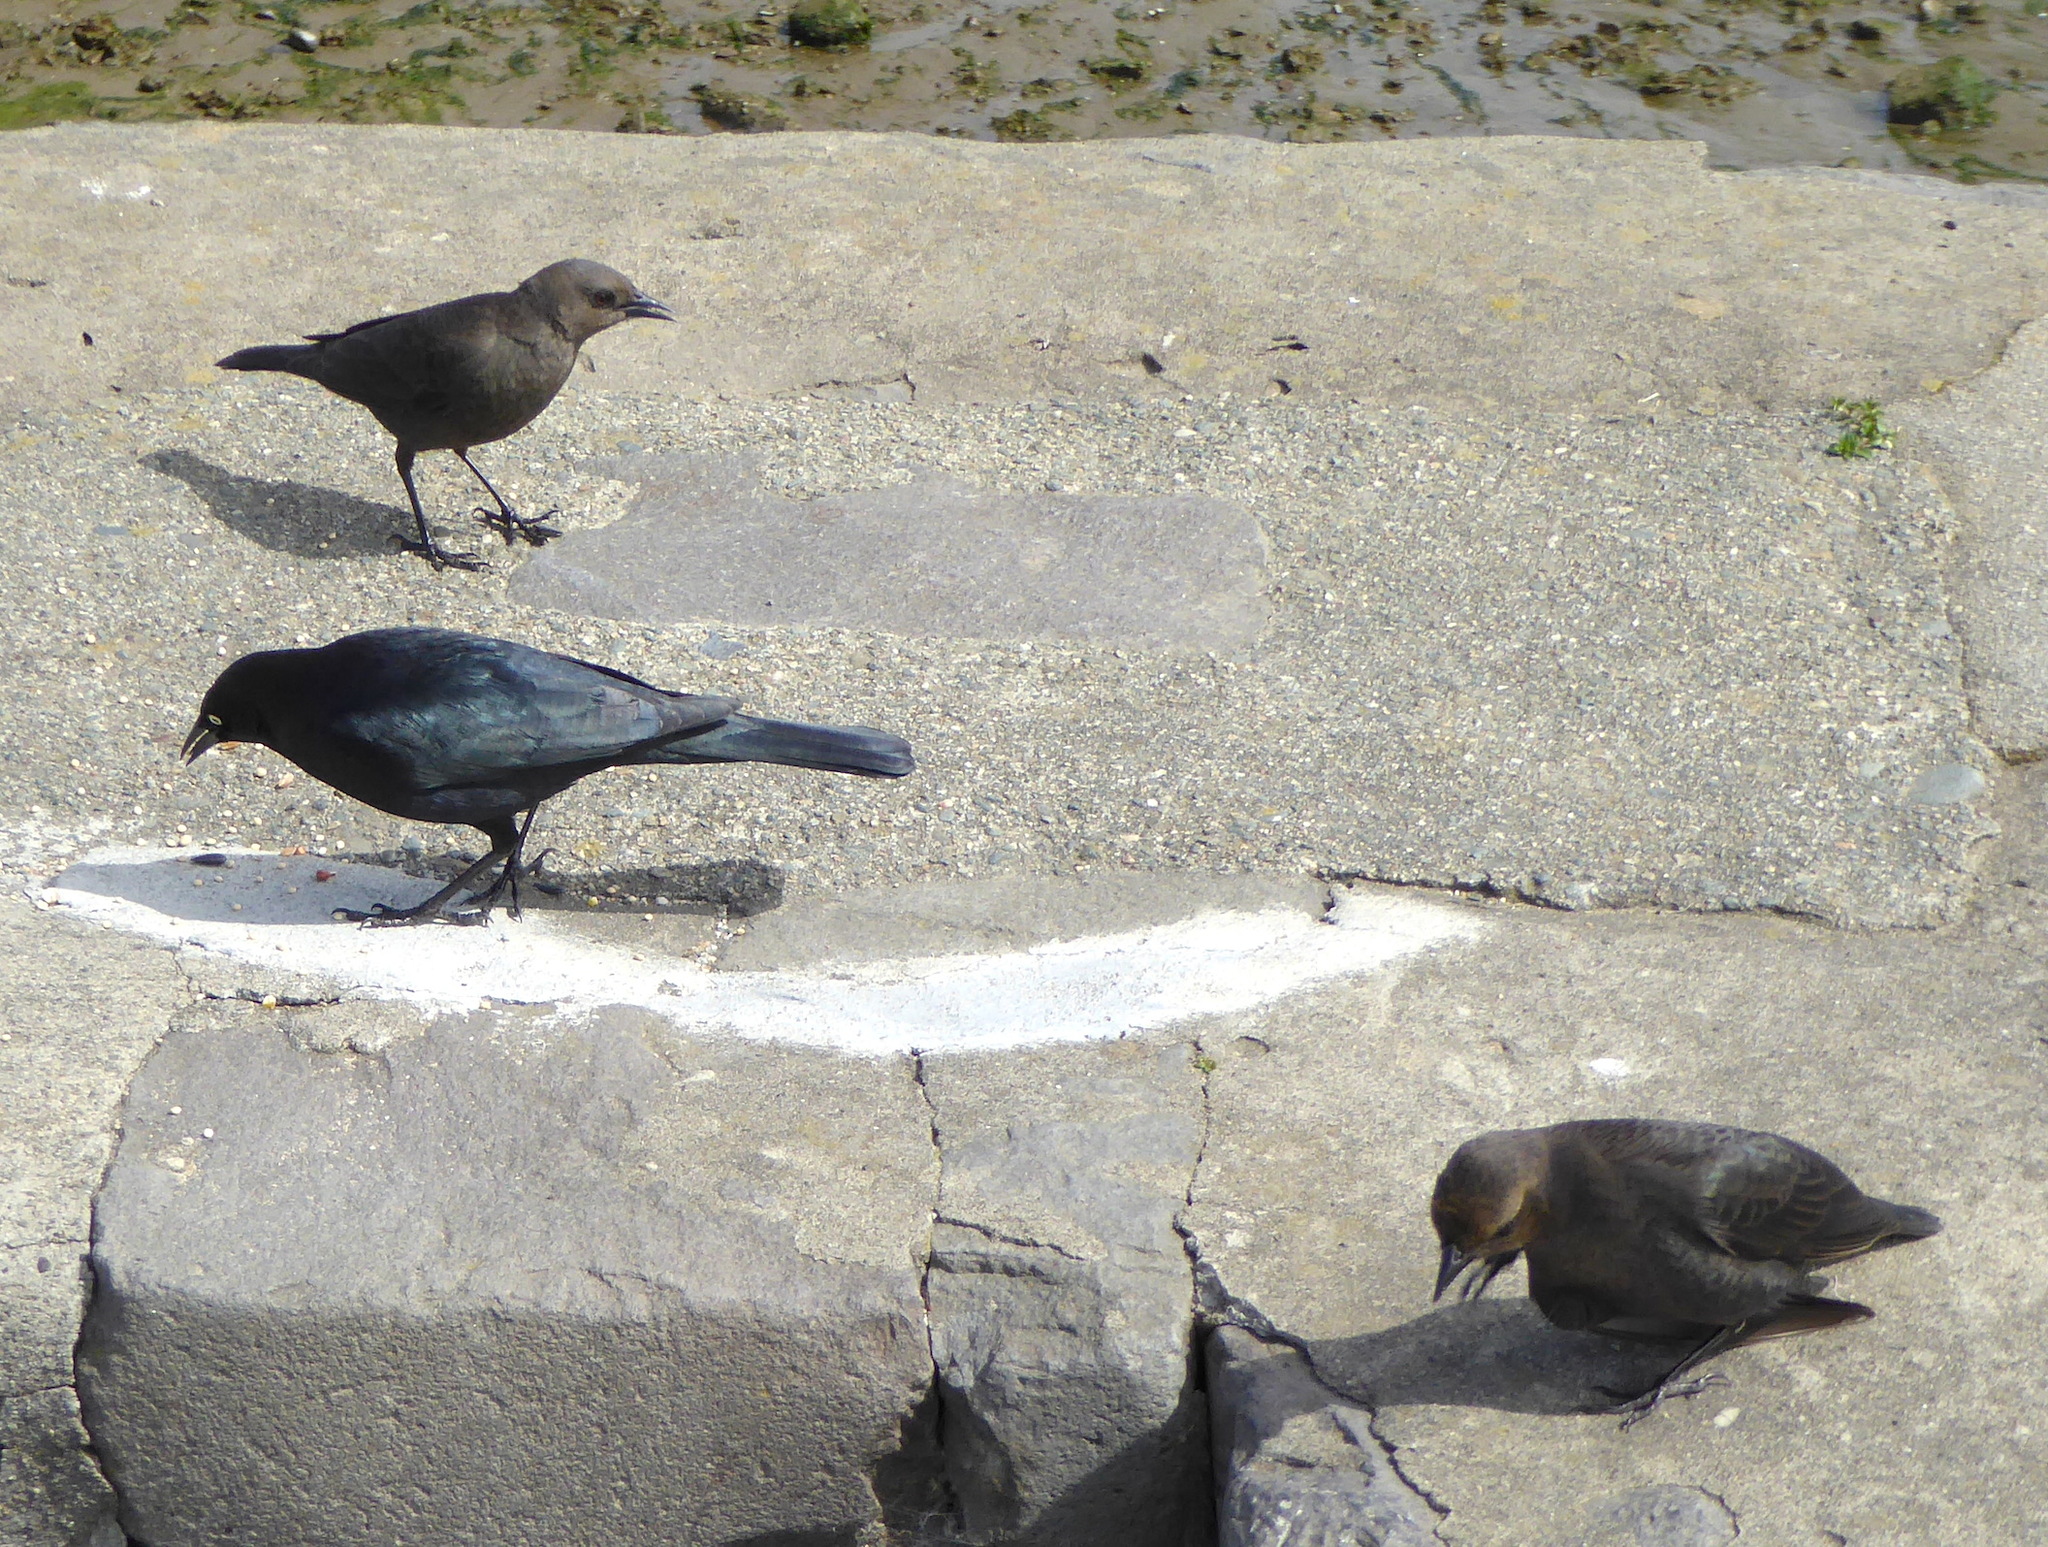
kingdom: Animalia
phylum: Chordata
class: Aves
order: Passeriformes
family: Icteridae
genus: Euphagus
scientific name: Euphagus cyanocephalus
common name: Brewer's blackbird
